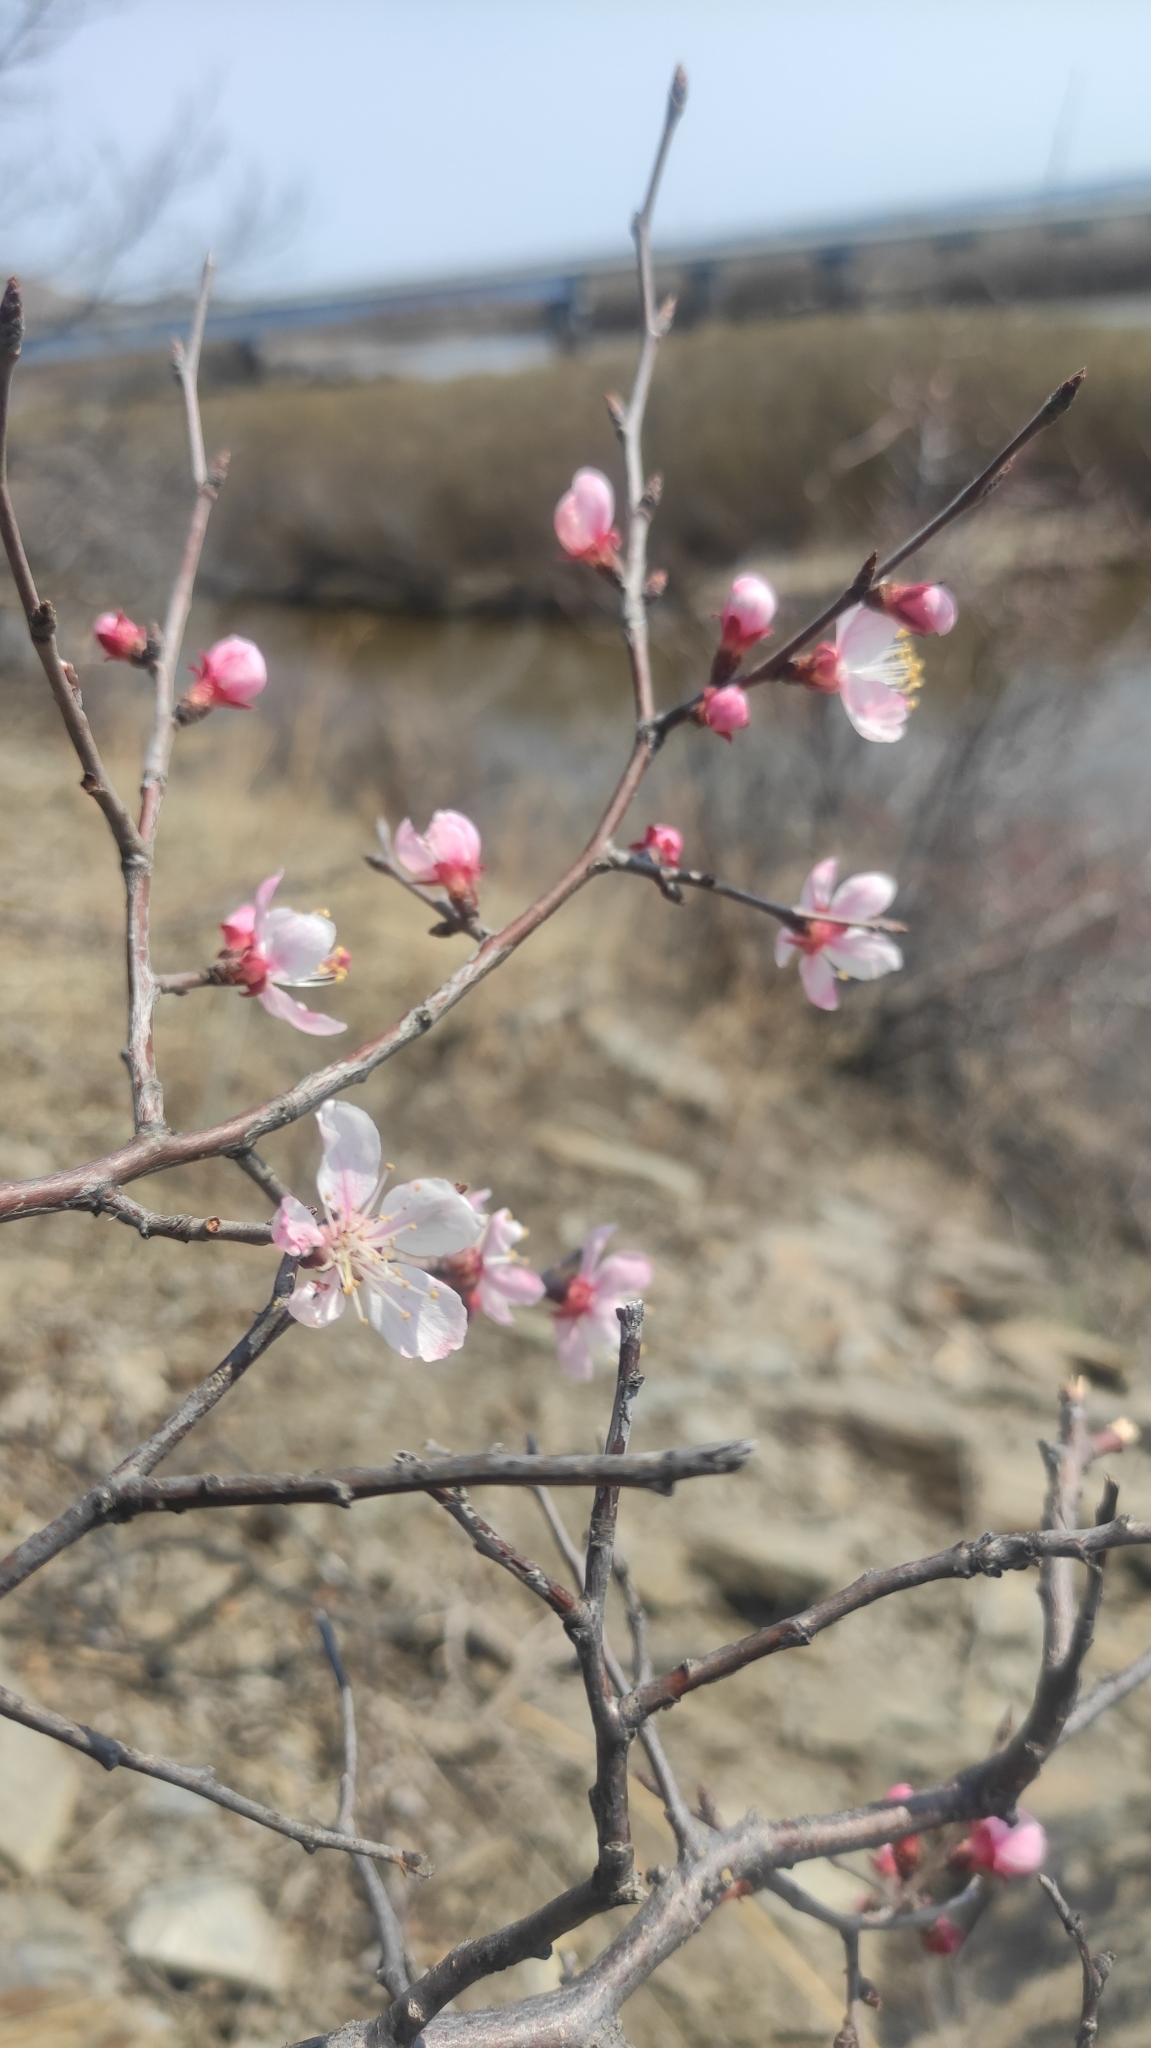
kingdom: Plantae
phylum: Tracheophyta
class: Magnoliopsida
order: Rosales
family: Rosaceae
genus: Prunus
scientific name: Prunus sibirica
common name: Siberian apricot
